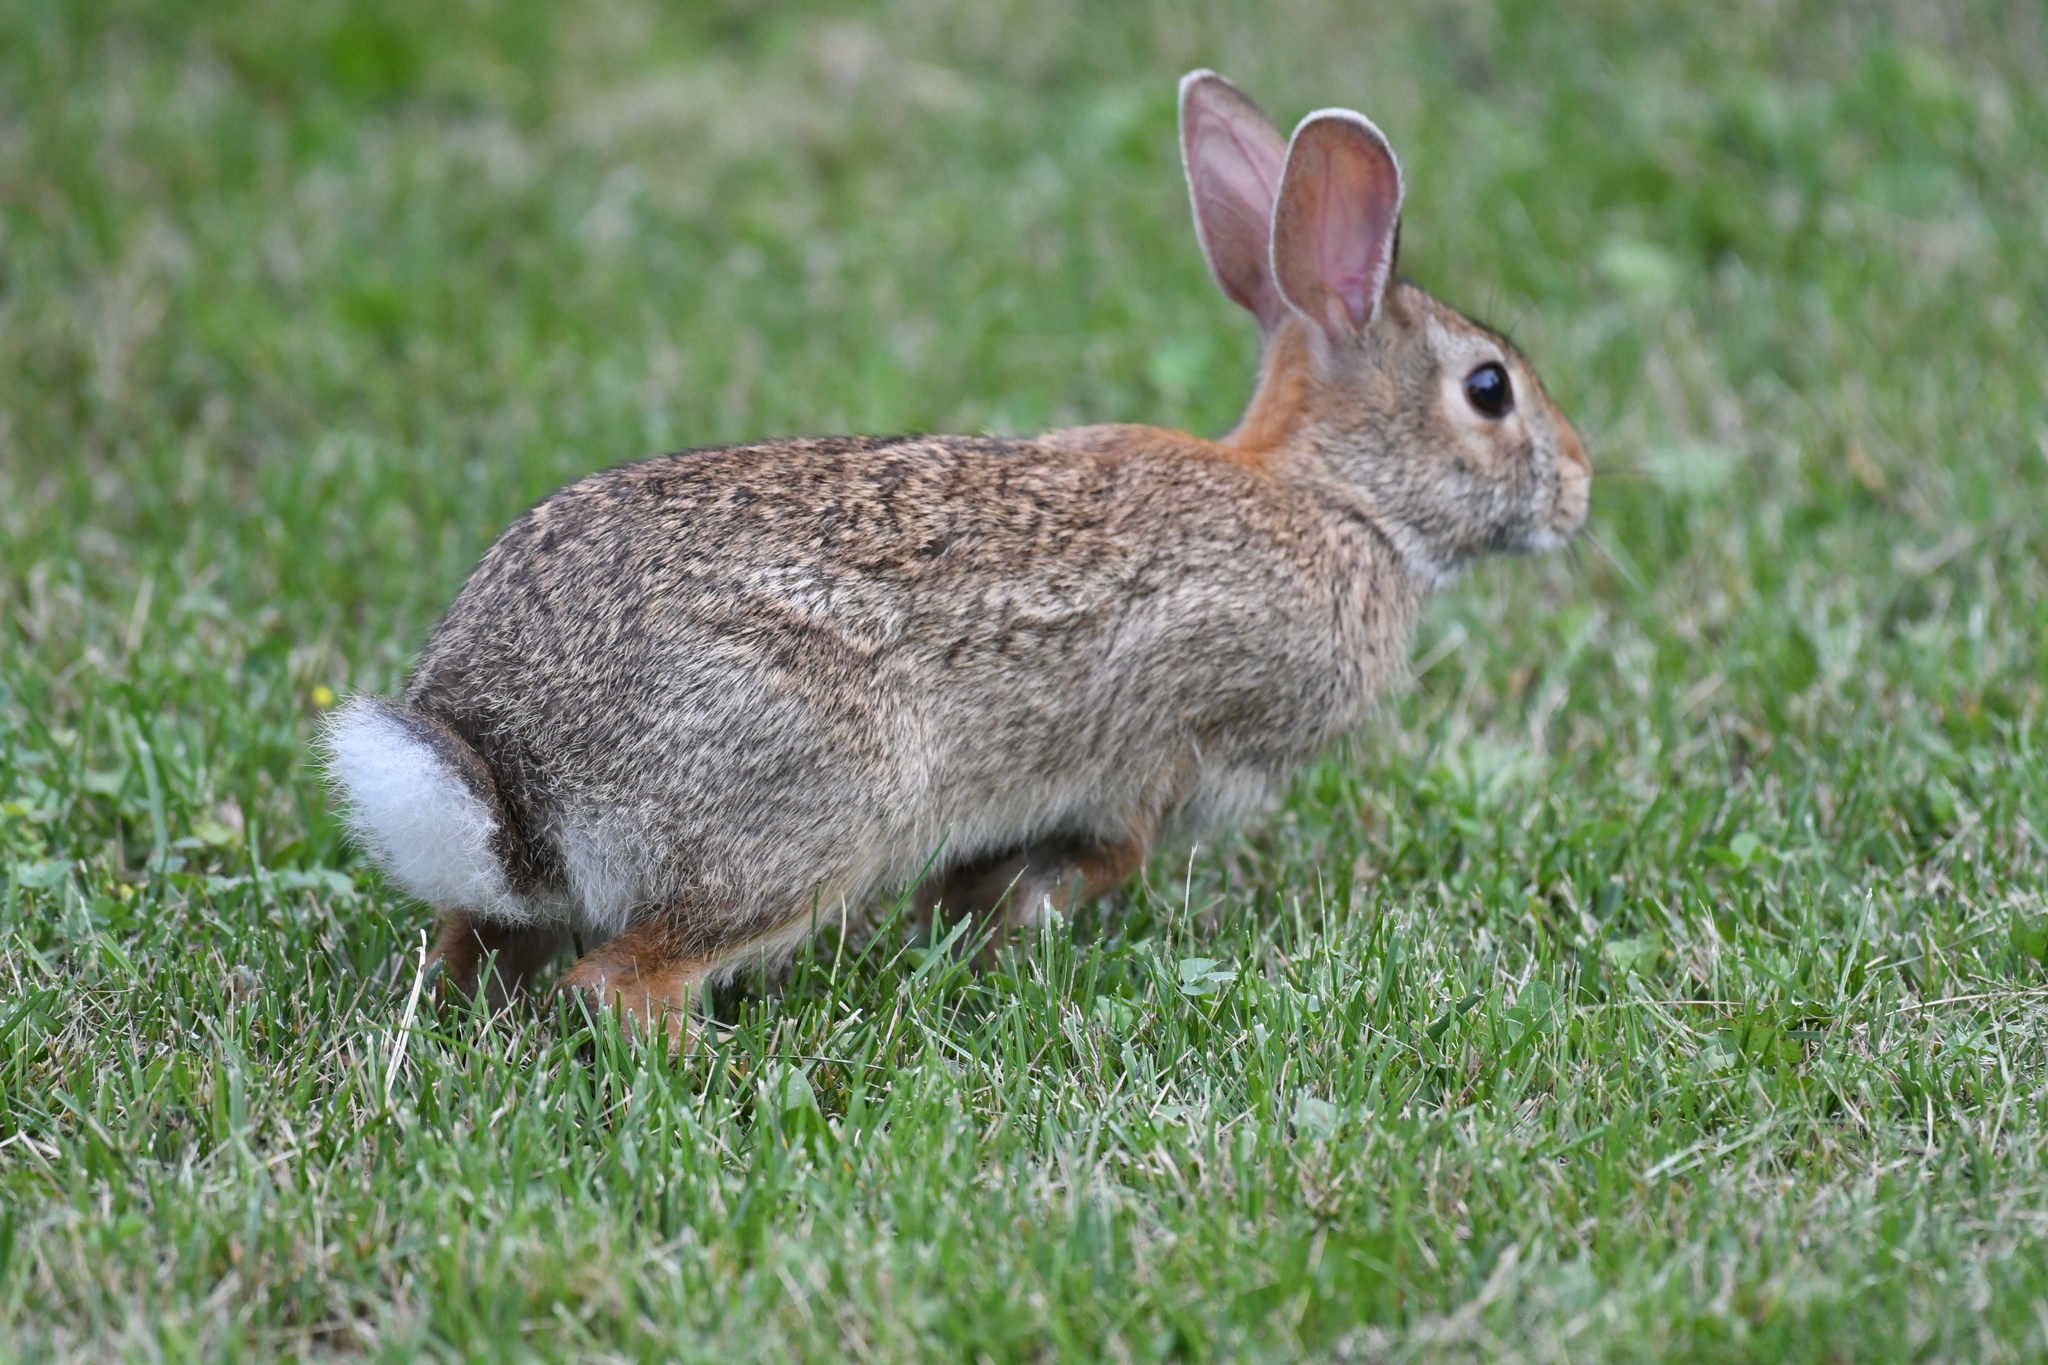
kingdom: Animalia
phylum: Chordata
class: Mammalia
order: Lagomorpha
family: Leporidae
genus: Sylvilagus
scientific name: Sylvilagus floridanus
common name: Eastern cottontail
